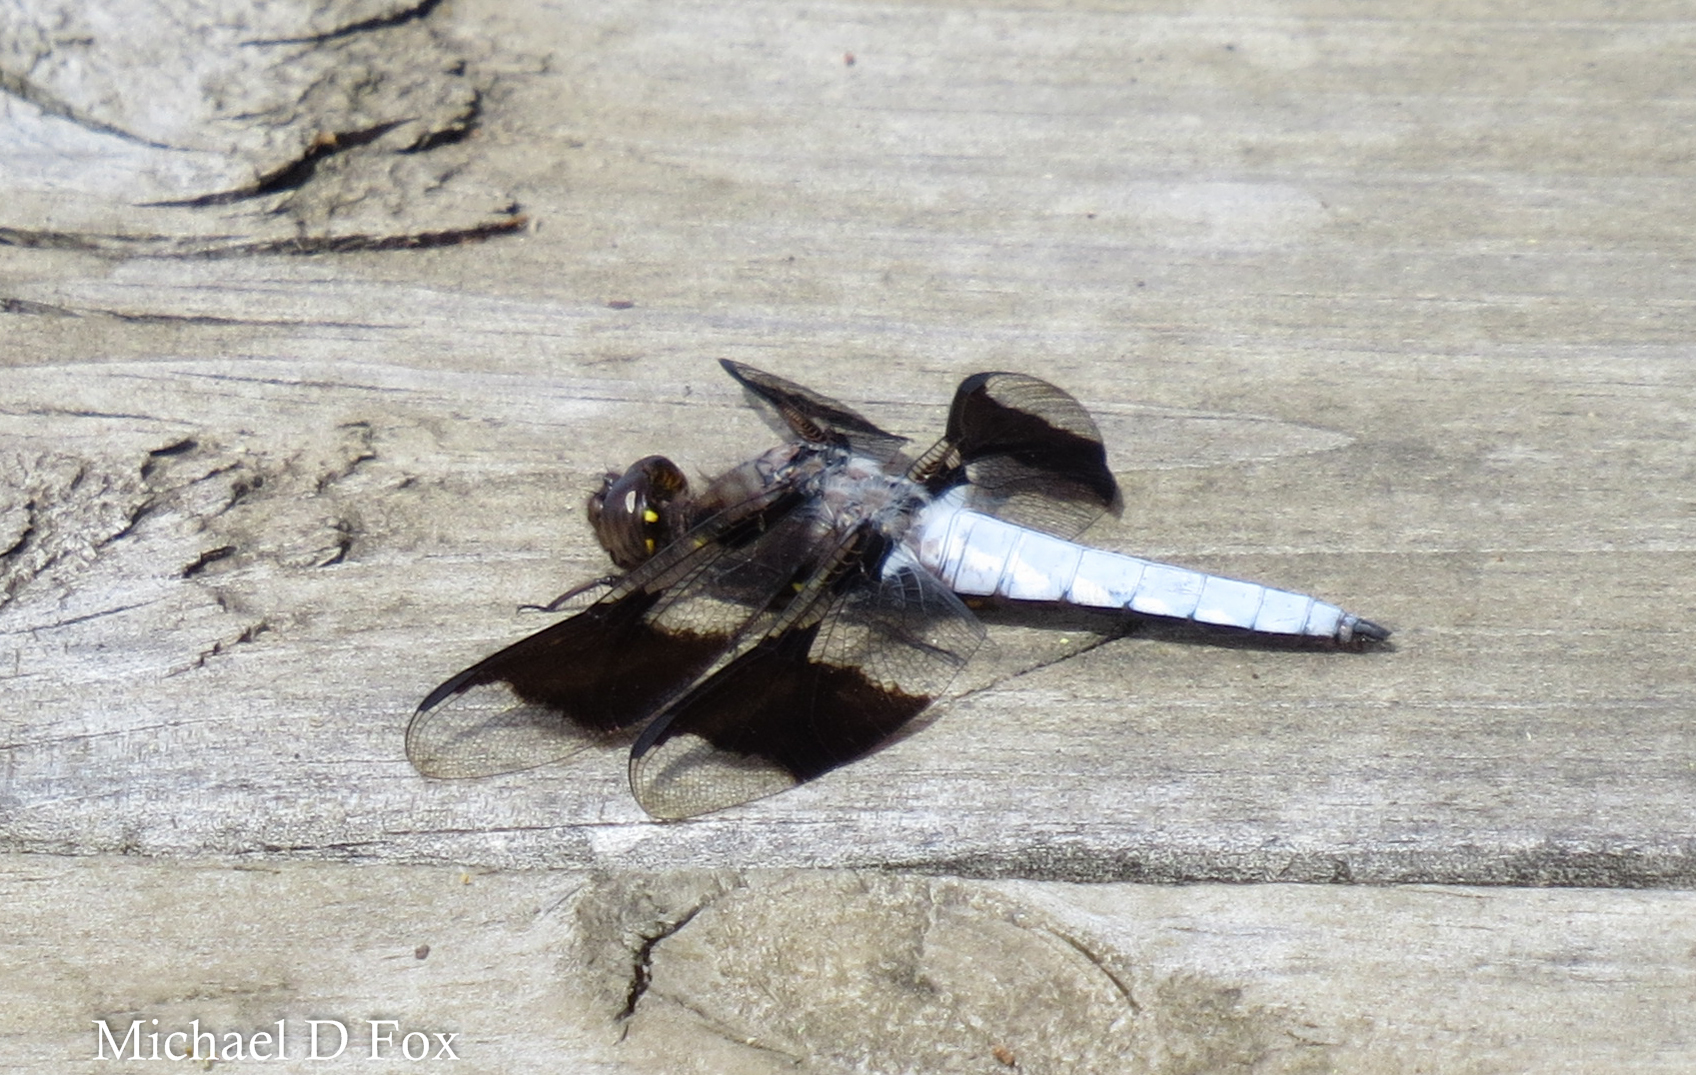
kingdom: Animalia
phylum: Arthropoda
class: Insecta
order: Odonata
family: Libellulidae
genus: Plathemis
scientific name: Plathemis lydia
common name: Common whitetail
